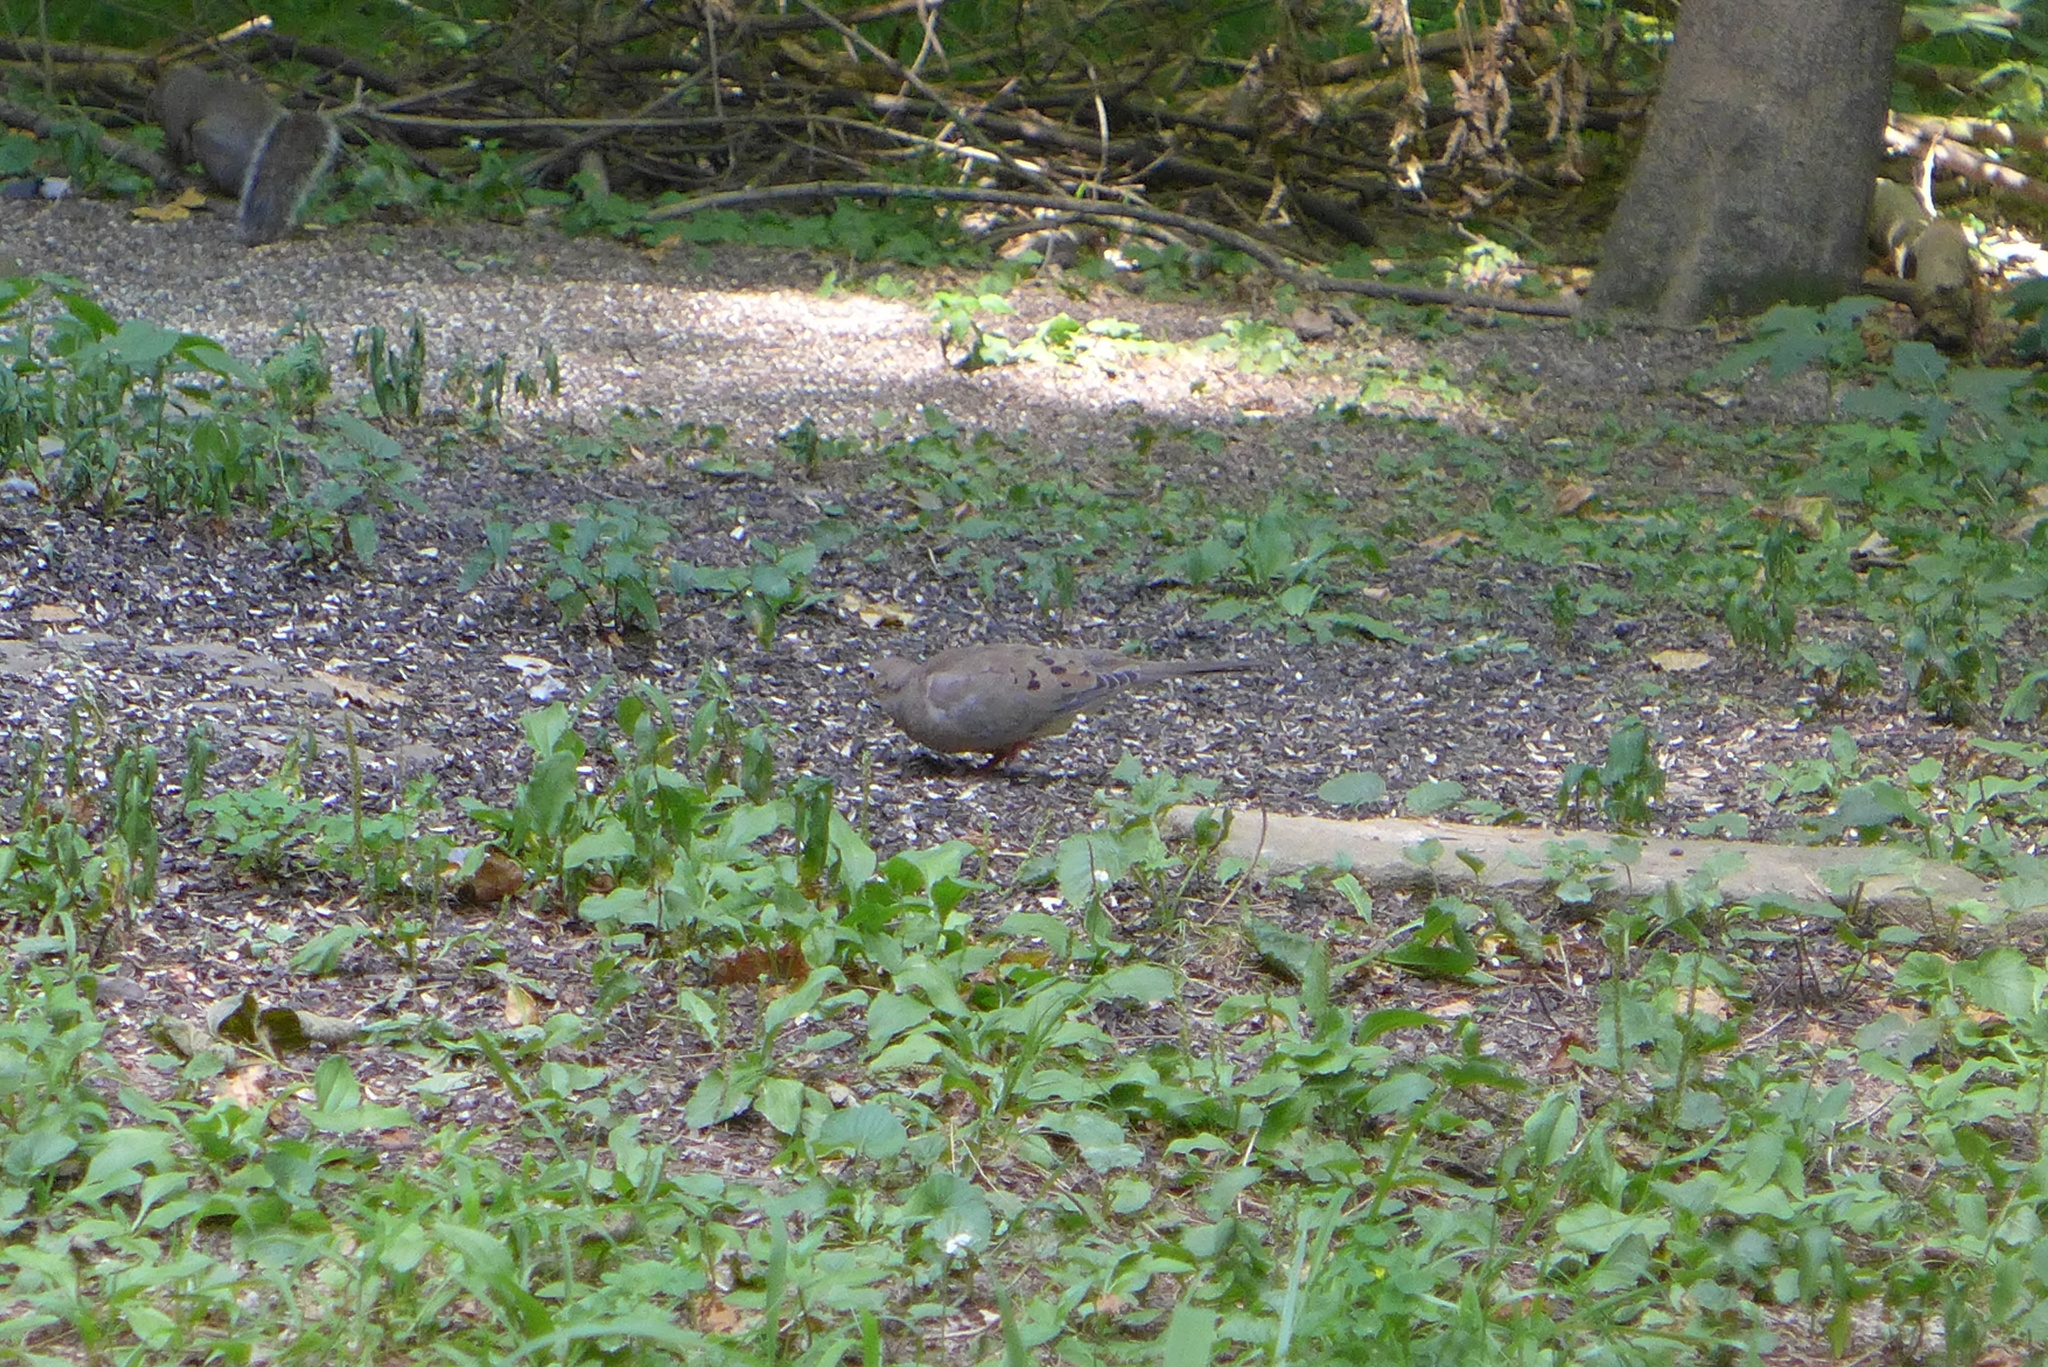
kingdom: Animalia
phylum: Chordata
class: Aves
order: Columbiformes
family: Columbidae
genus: Zenaida
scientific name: Zenaida macroura
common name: Mourning dove
